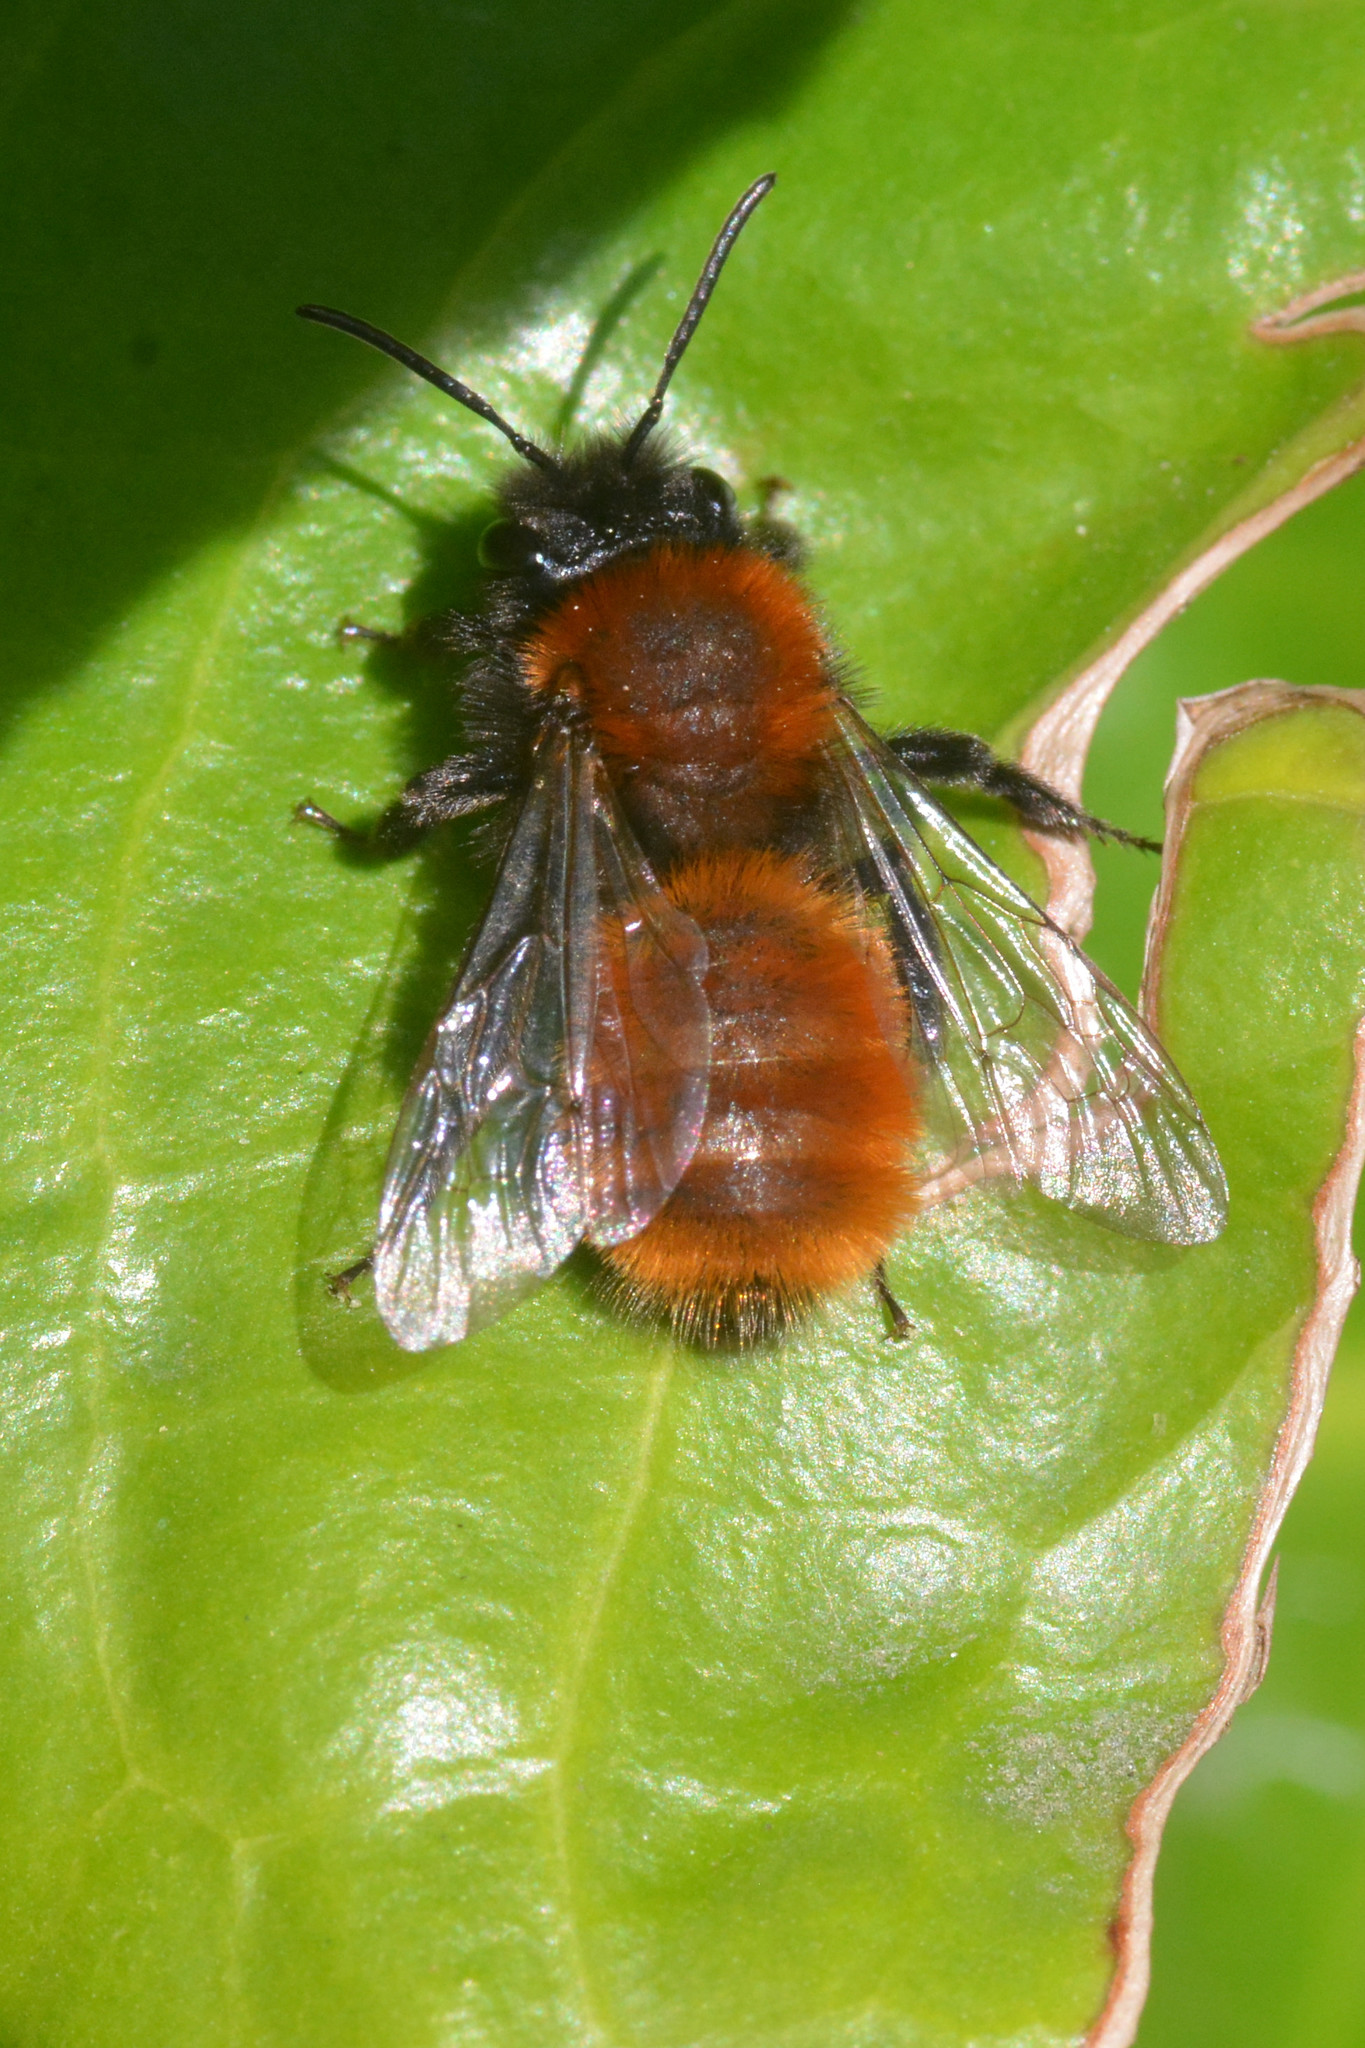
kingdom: Animalia
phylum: Arthropoda
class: Insecta
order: Hymenoptera
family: Andrenidae
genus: Andrena
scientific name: Andrena fulva
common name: Tawny mining bee
